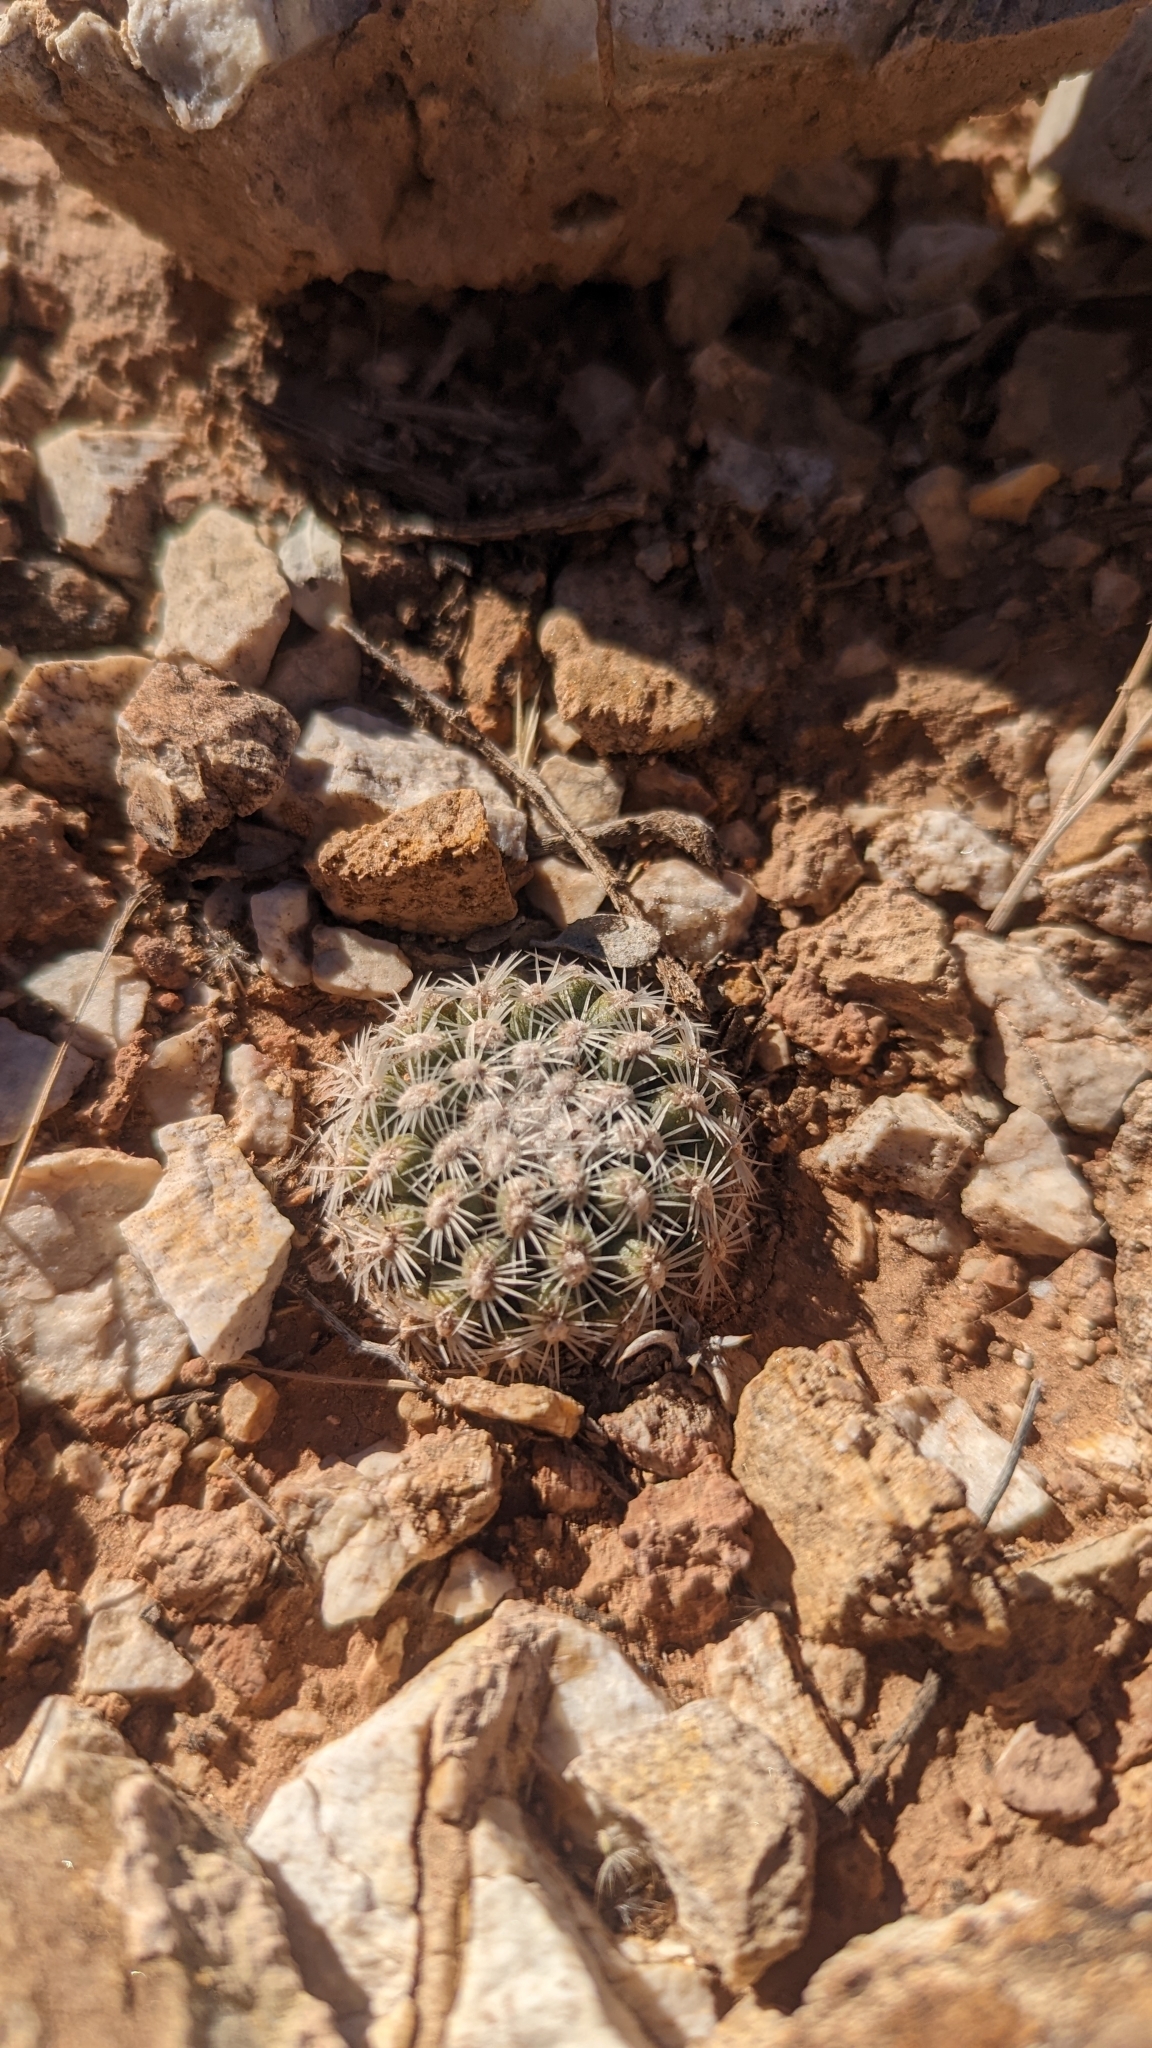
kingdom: Plantae
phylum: Tracheophyta
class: Magnoliopsida
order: Caryophyllales
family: Cactaceae
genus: Pediocactus
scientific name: Pediocactus bradyi
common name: Brady's hedgehog cactus
